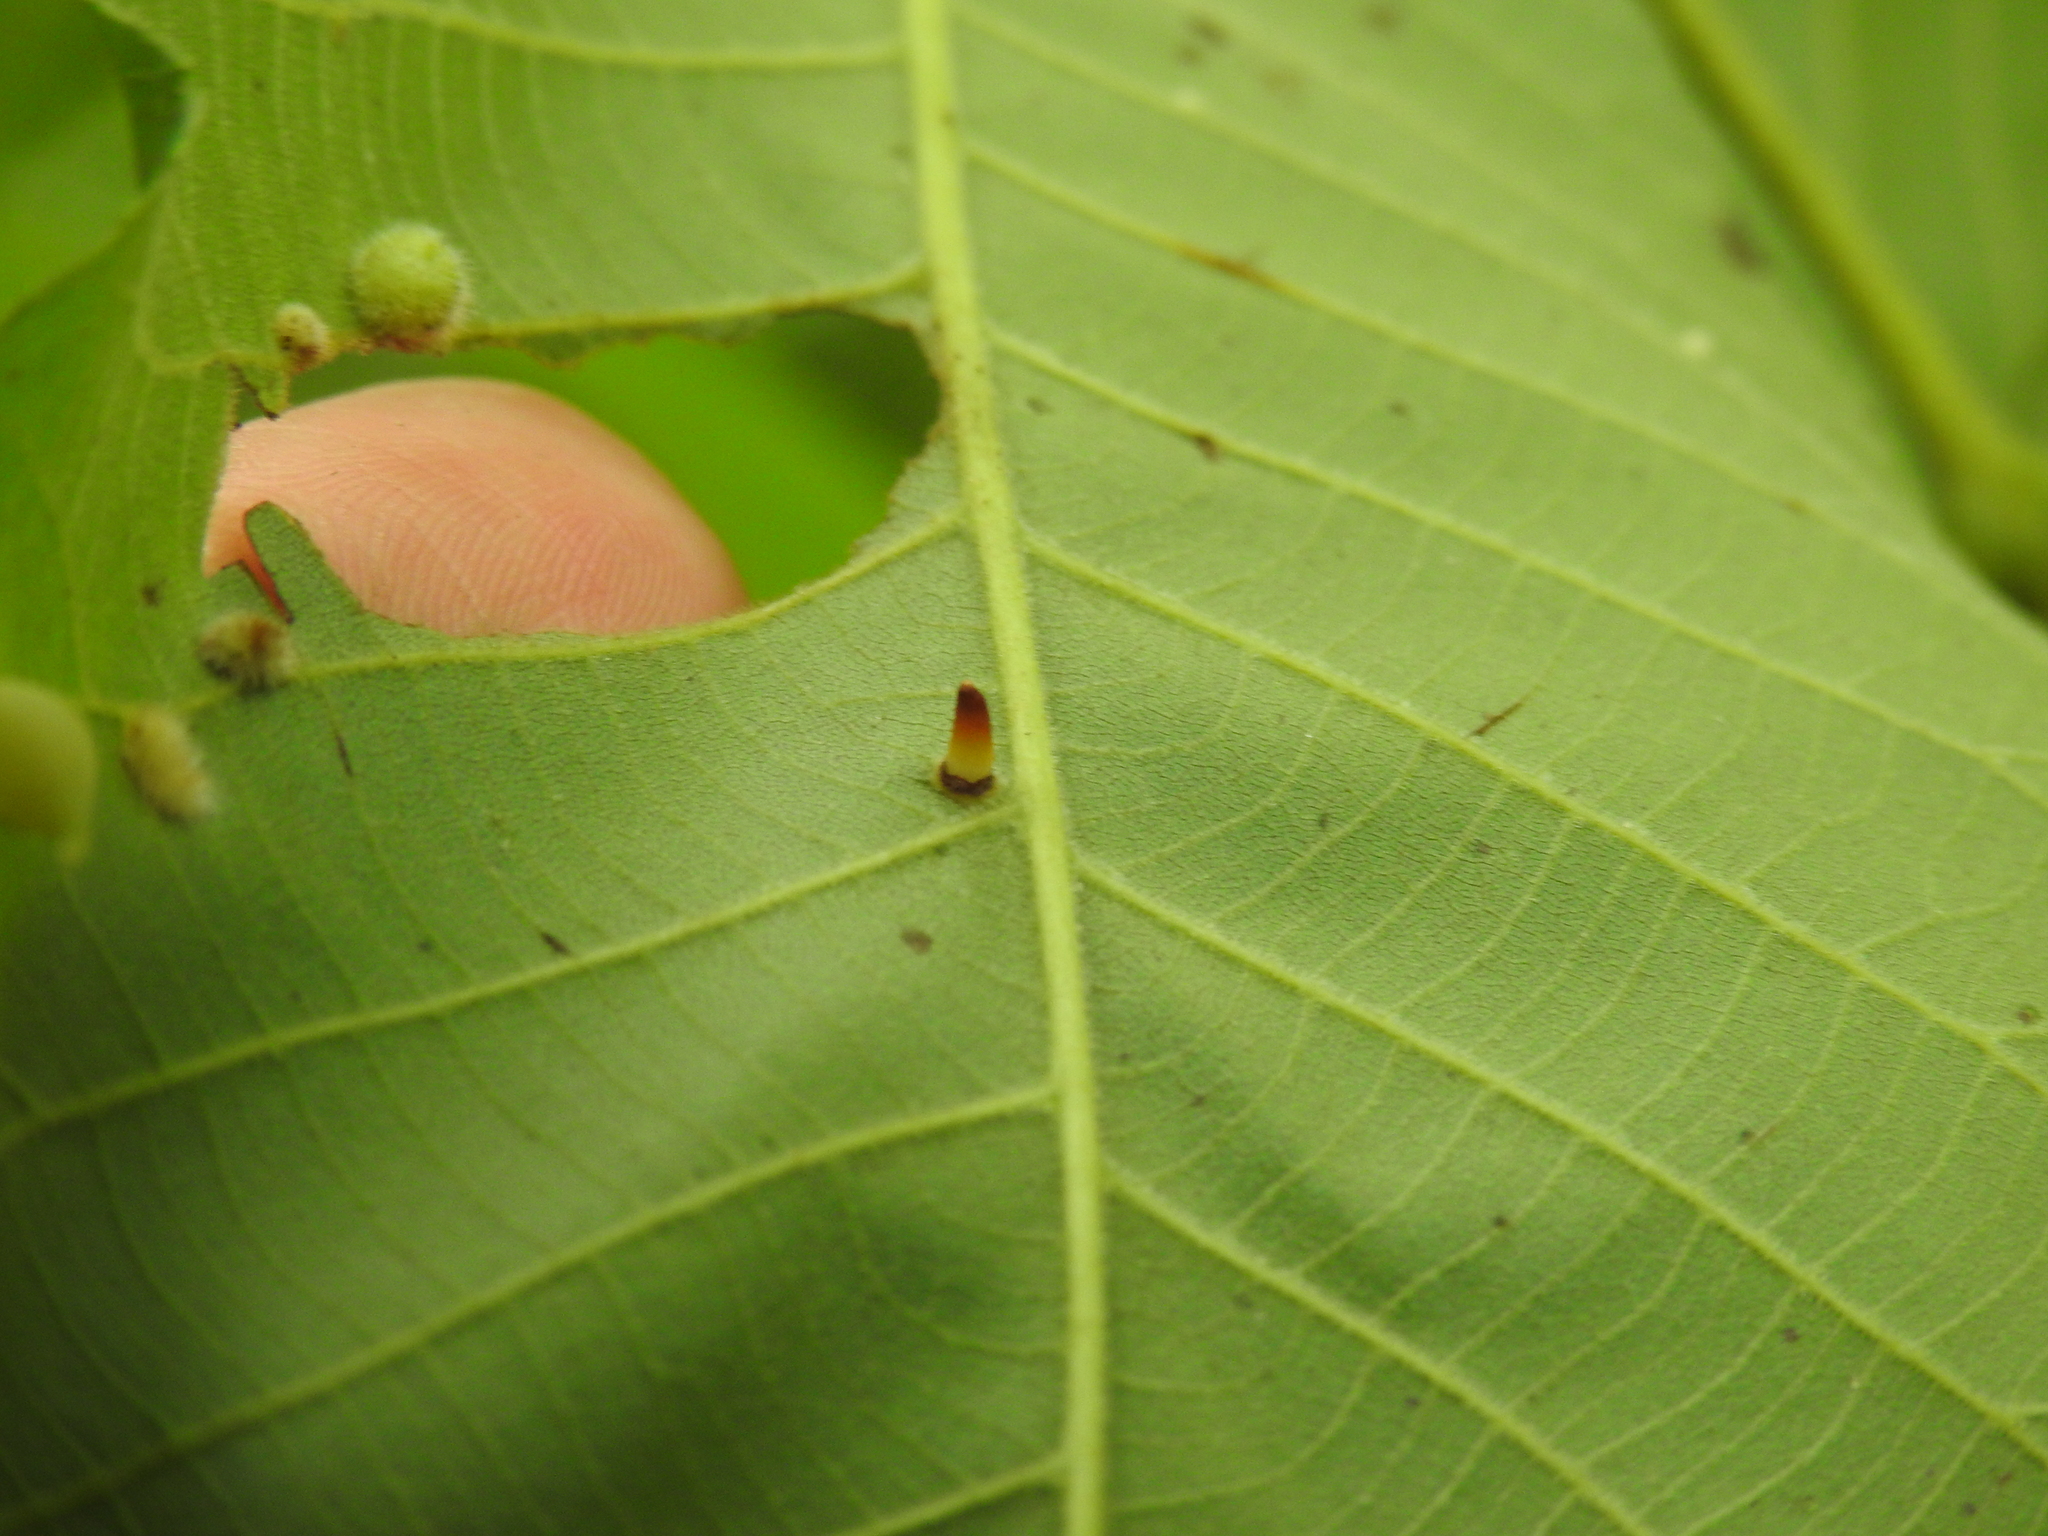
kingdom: Animalia
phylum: Arthropoda
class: Insecta
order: Diptera
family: Cecidomyiidae
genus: Caryomyia
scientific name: Caryomyia subulata
